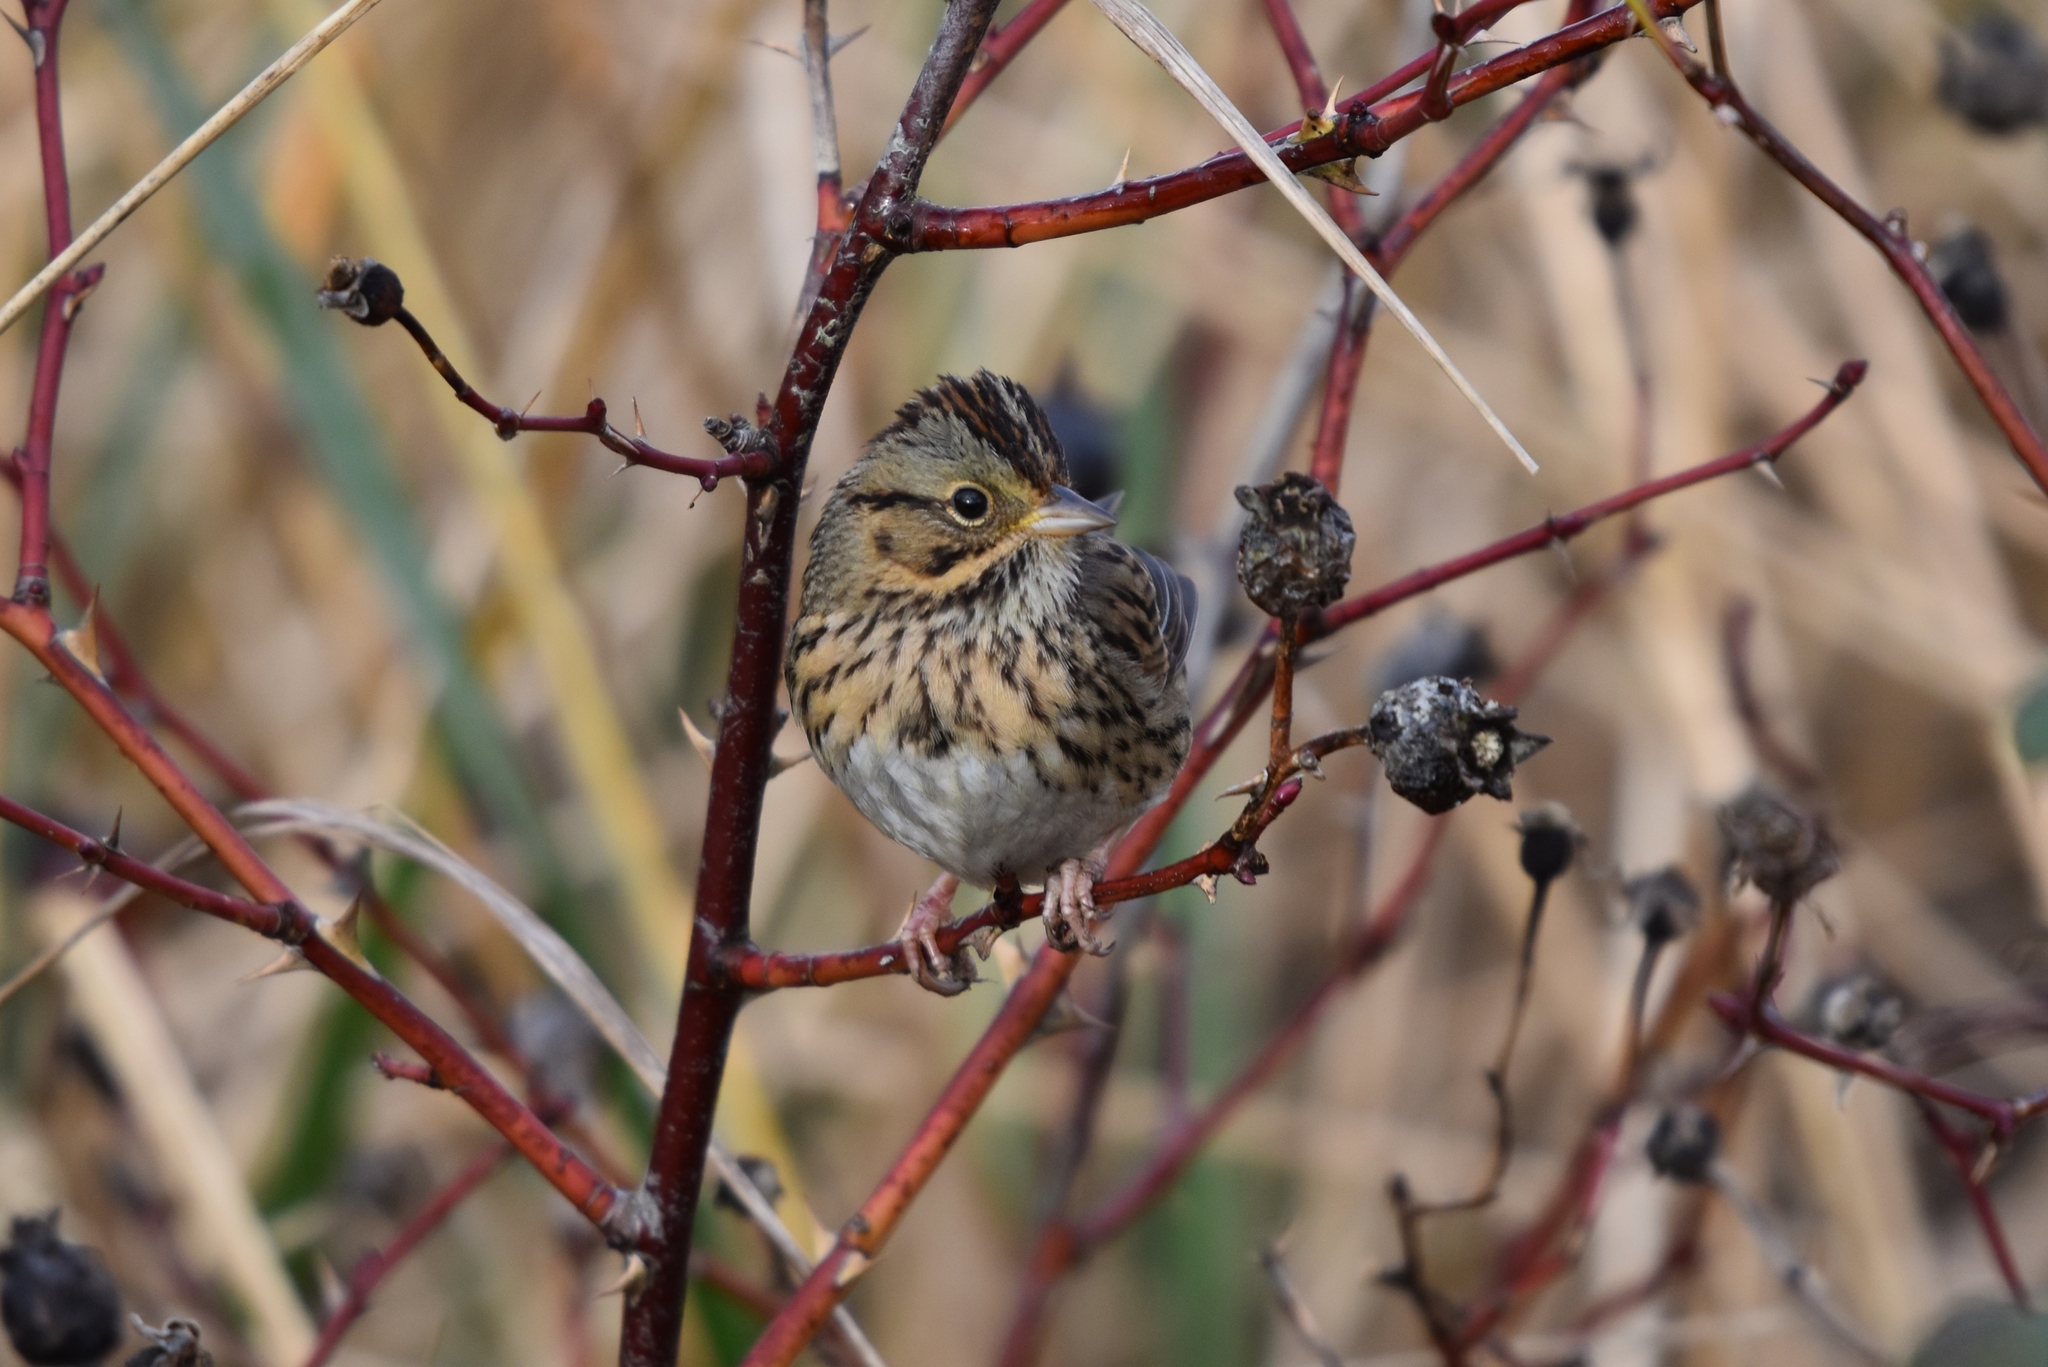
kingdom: Animalia
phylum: Chordata
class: Aves
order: Passeriformes
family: Passerellidae
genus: Melospiza
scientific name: Melospiza lincolnii
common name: Lincoln's sparrow
